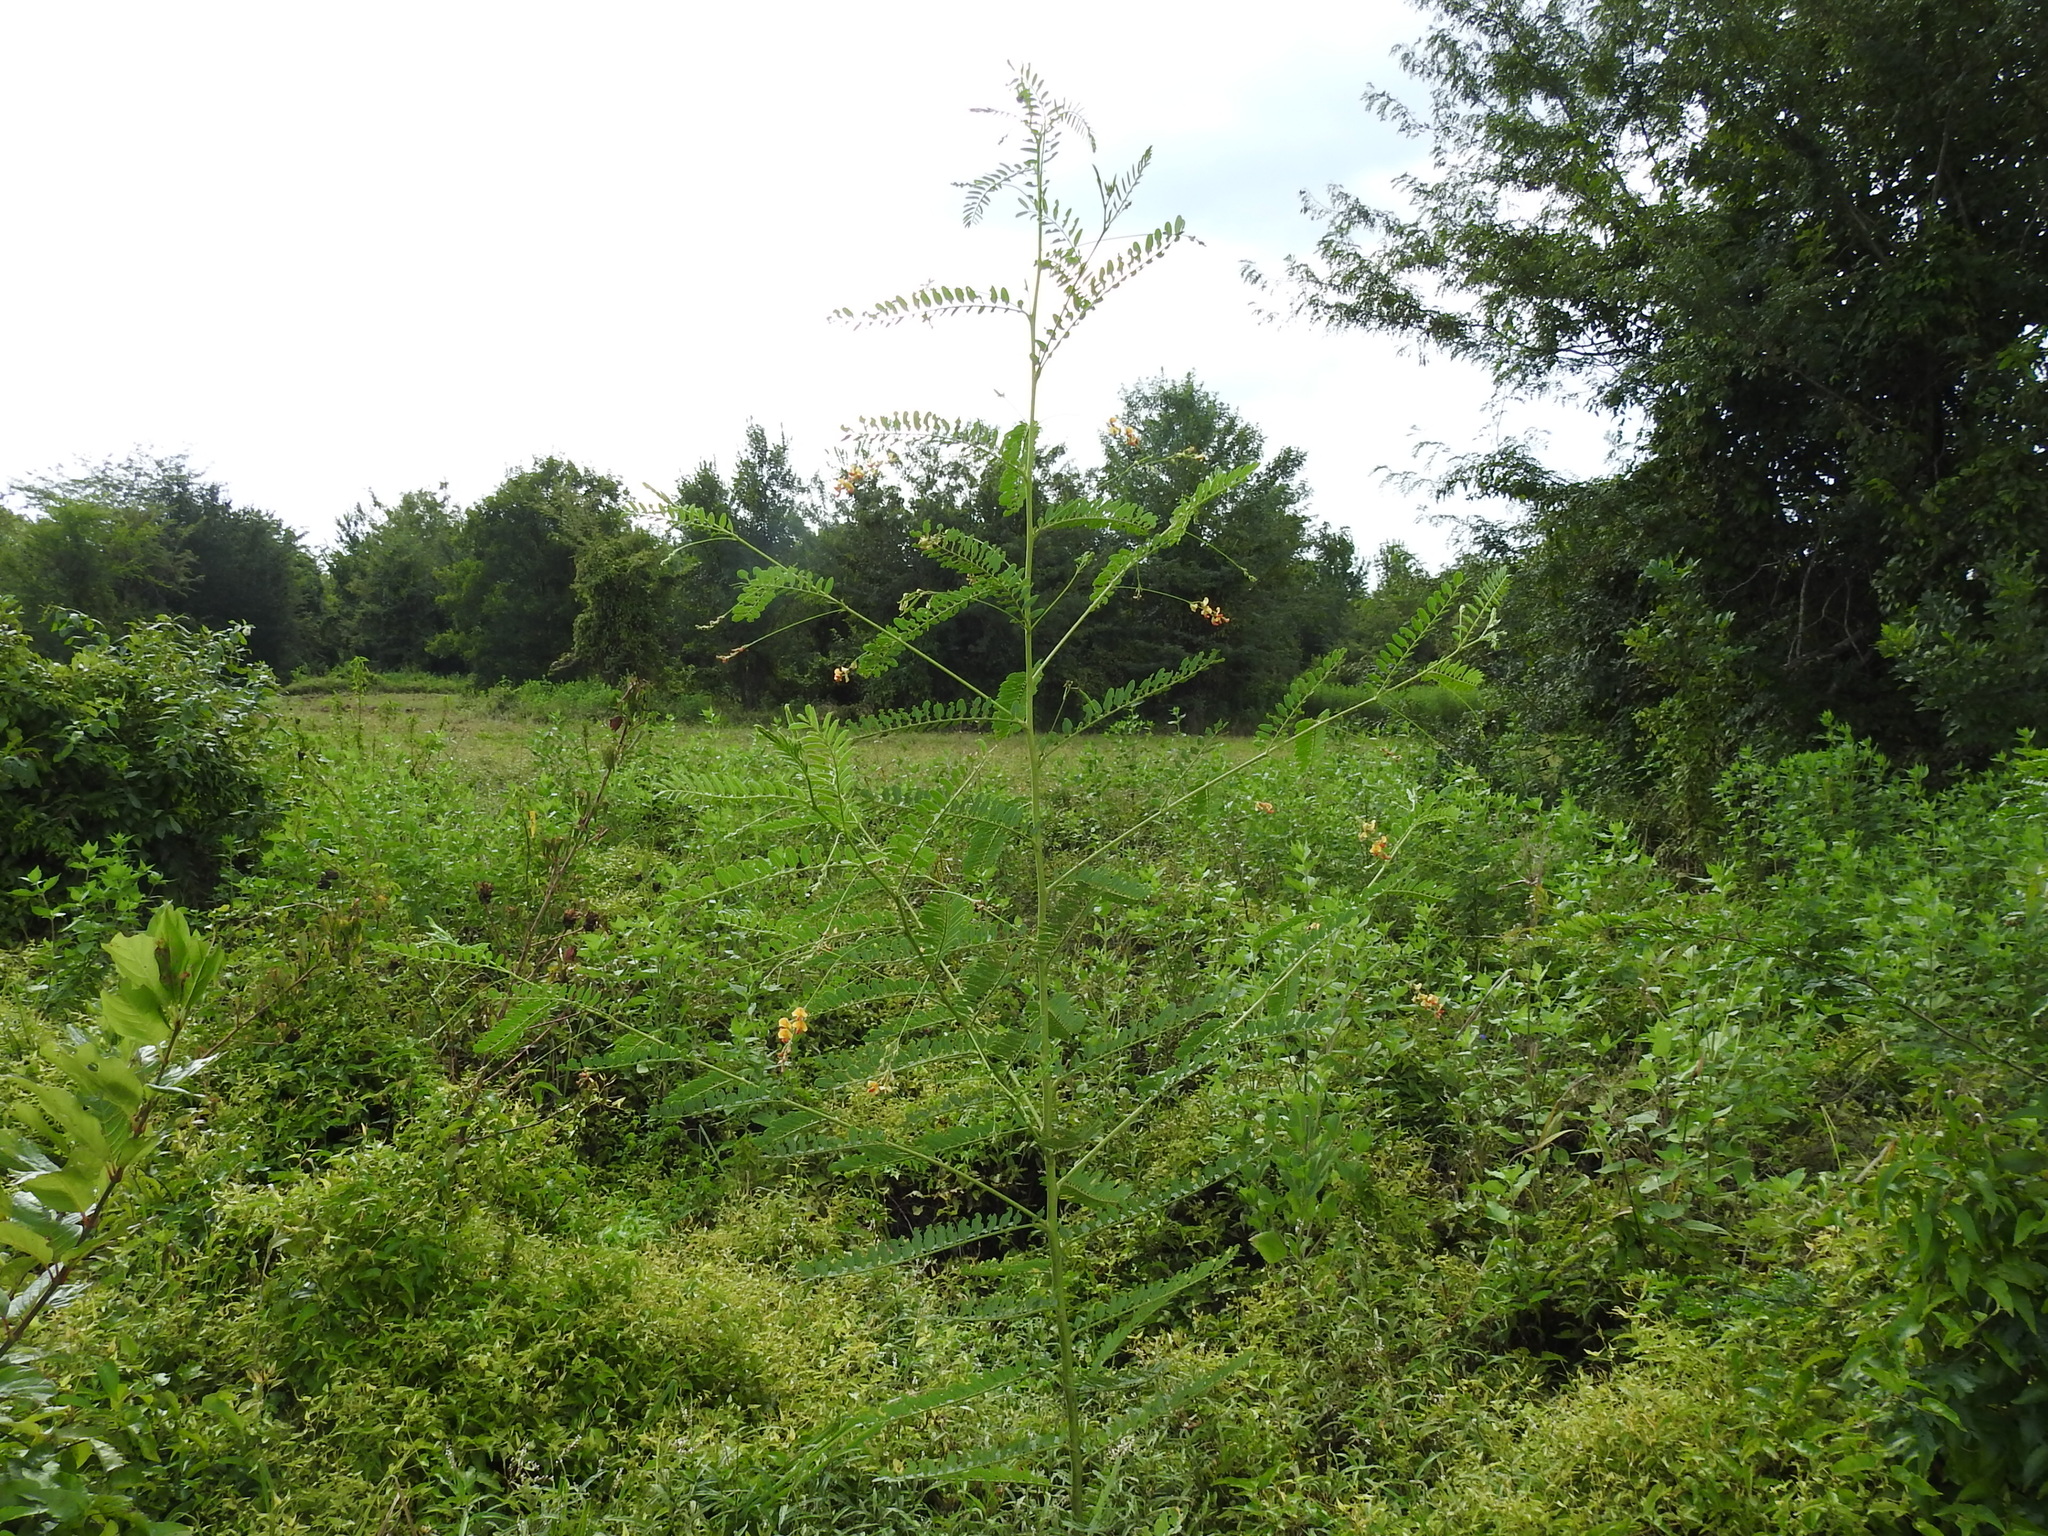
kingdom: Plantae
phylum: Tracheophyta
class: Magnoliopsida
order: Fabales
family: Fabaceae
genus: Sesbania
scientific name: Sesbania vesicaria
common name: Bagpod
